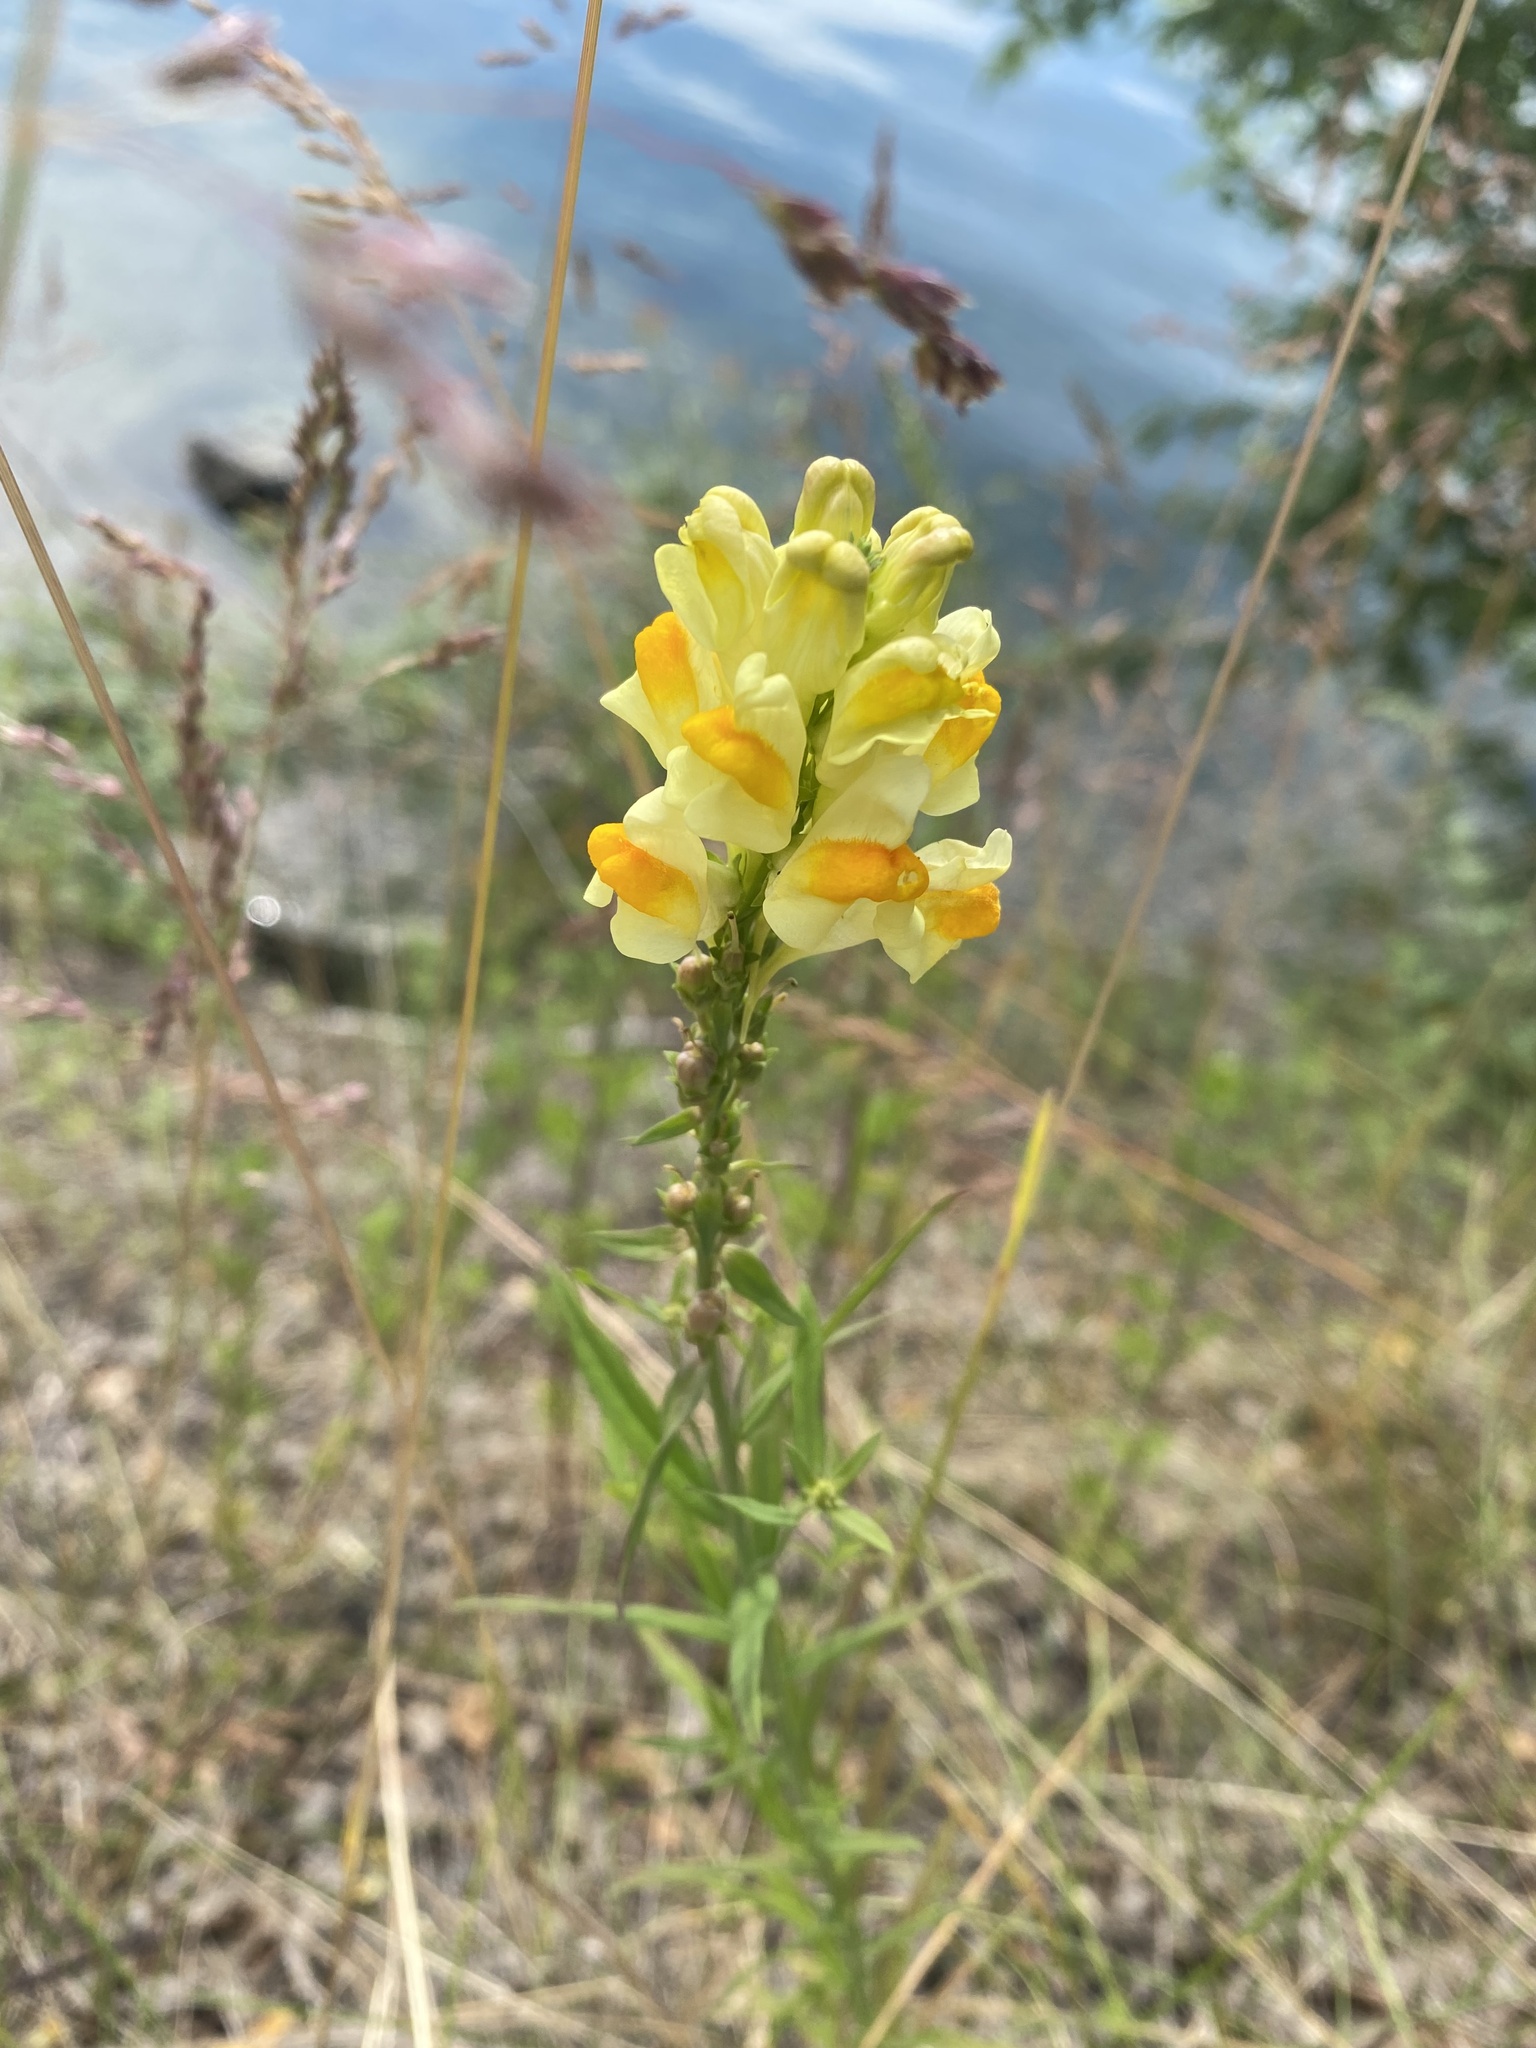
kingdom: Plantae
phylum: Tracheophyta
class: Magnoliopsida
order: Lamiales
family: Plantaginaceae
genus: Linaria
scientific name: Linaria vulgaris
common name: Butter and eggs
